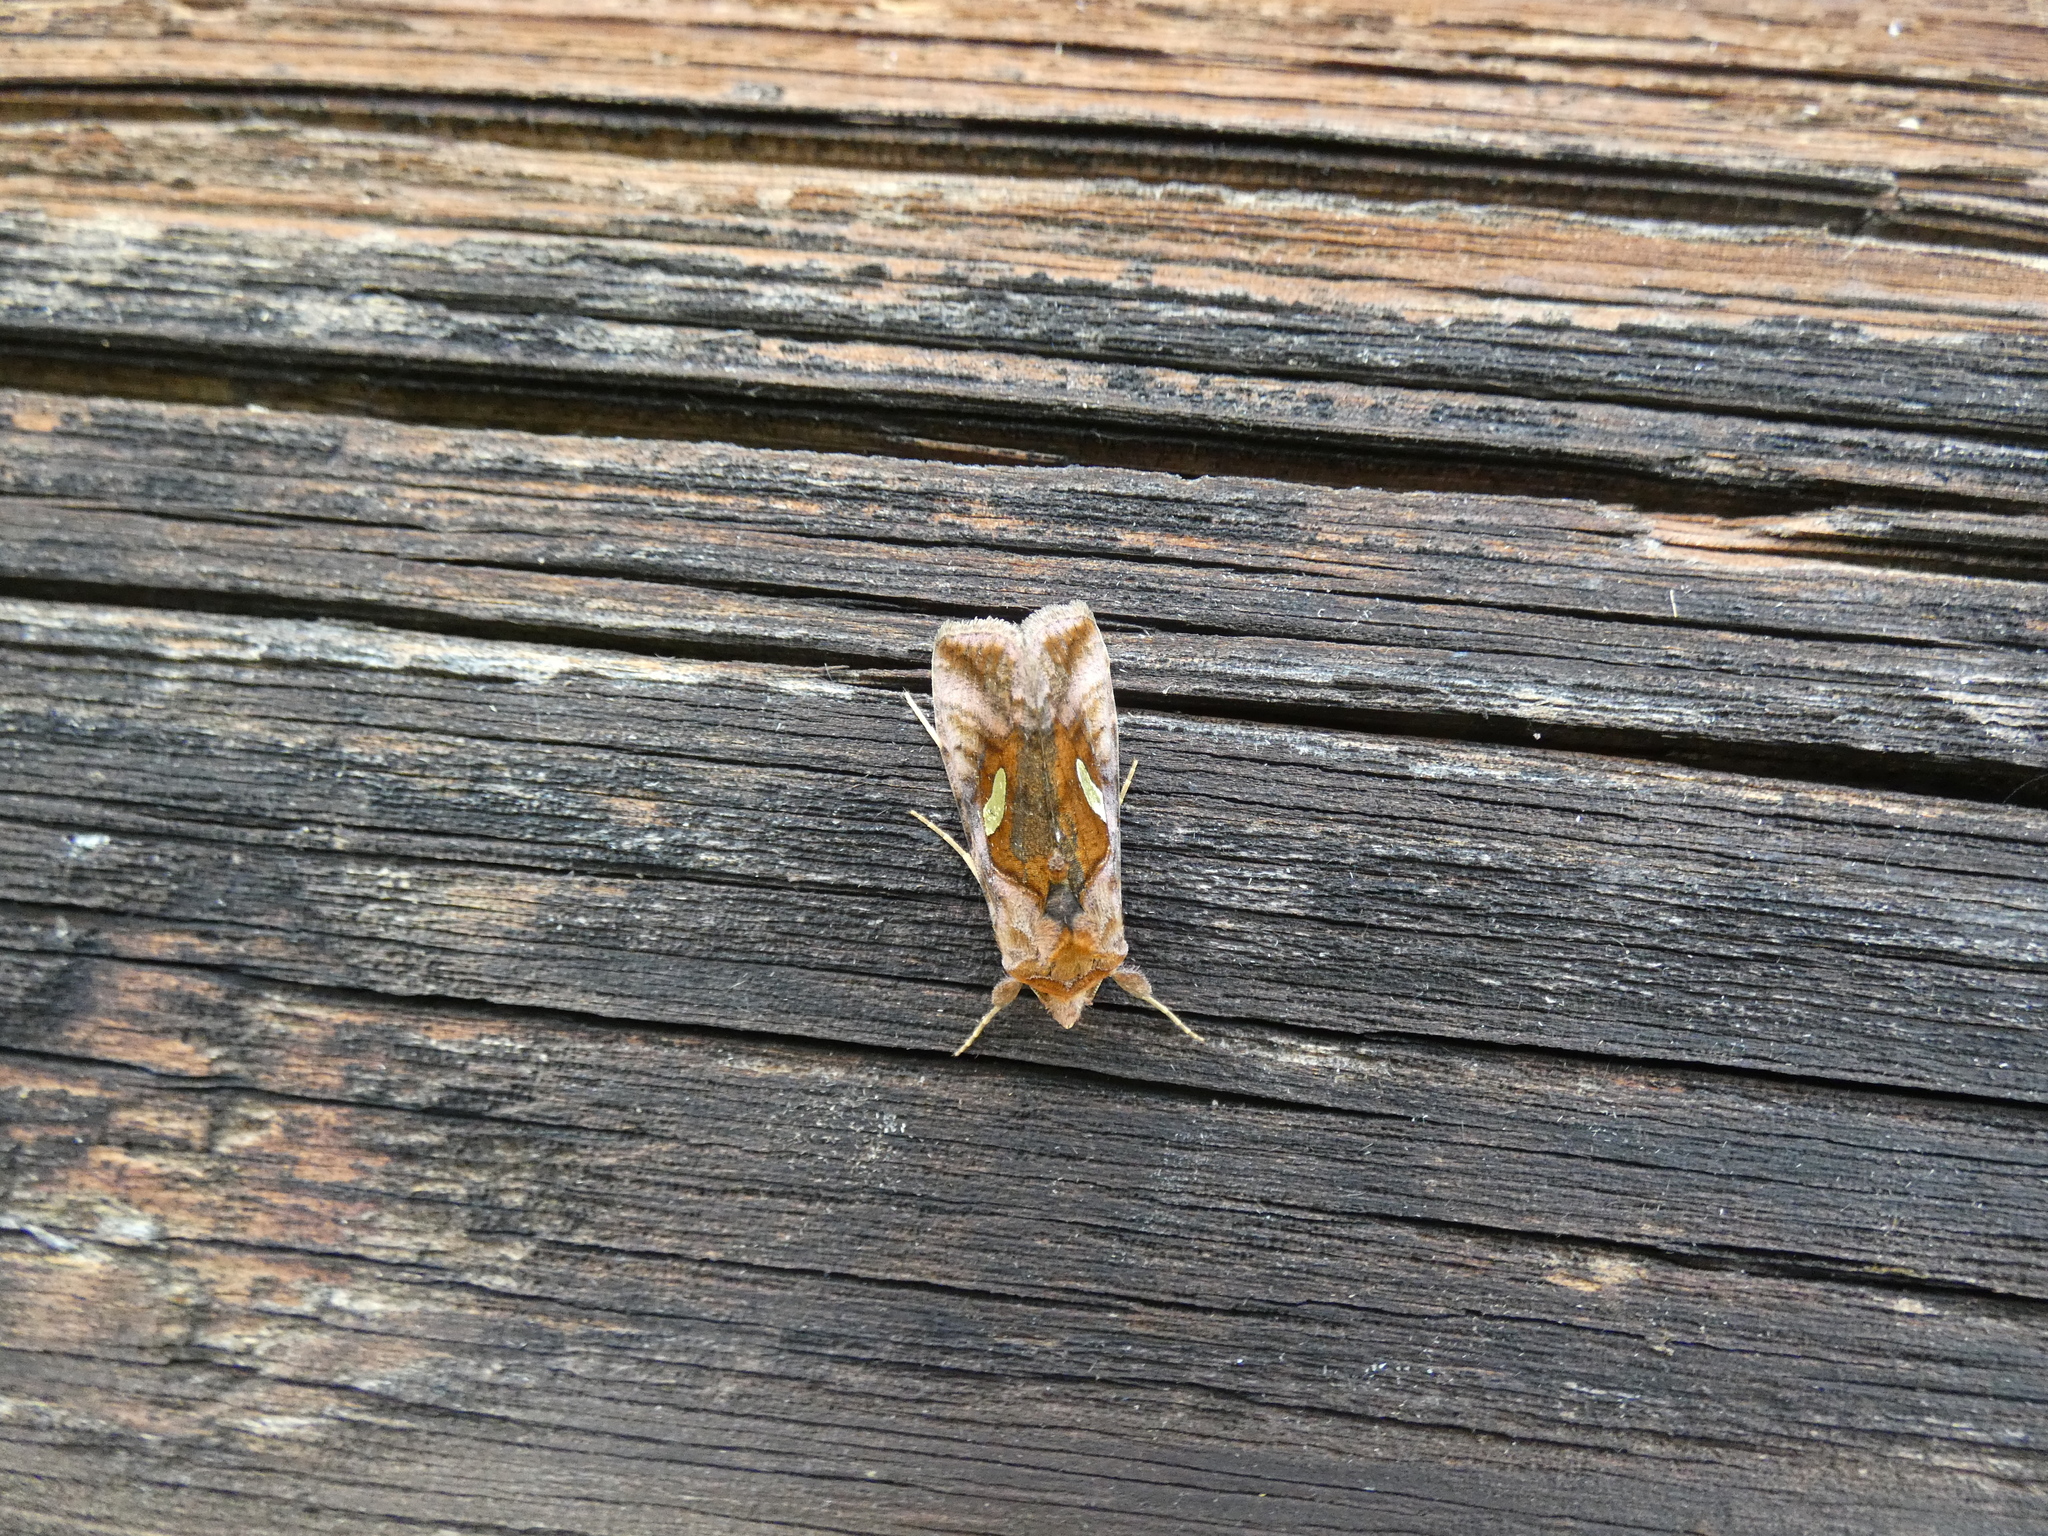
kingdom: Animalia
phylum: Arthropoda
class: Insecta
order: Lepidoptera
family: Noctuidae
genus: Autographa
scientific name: Autographa excelsa
